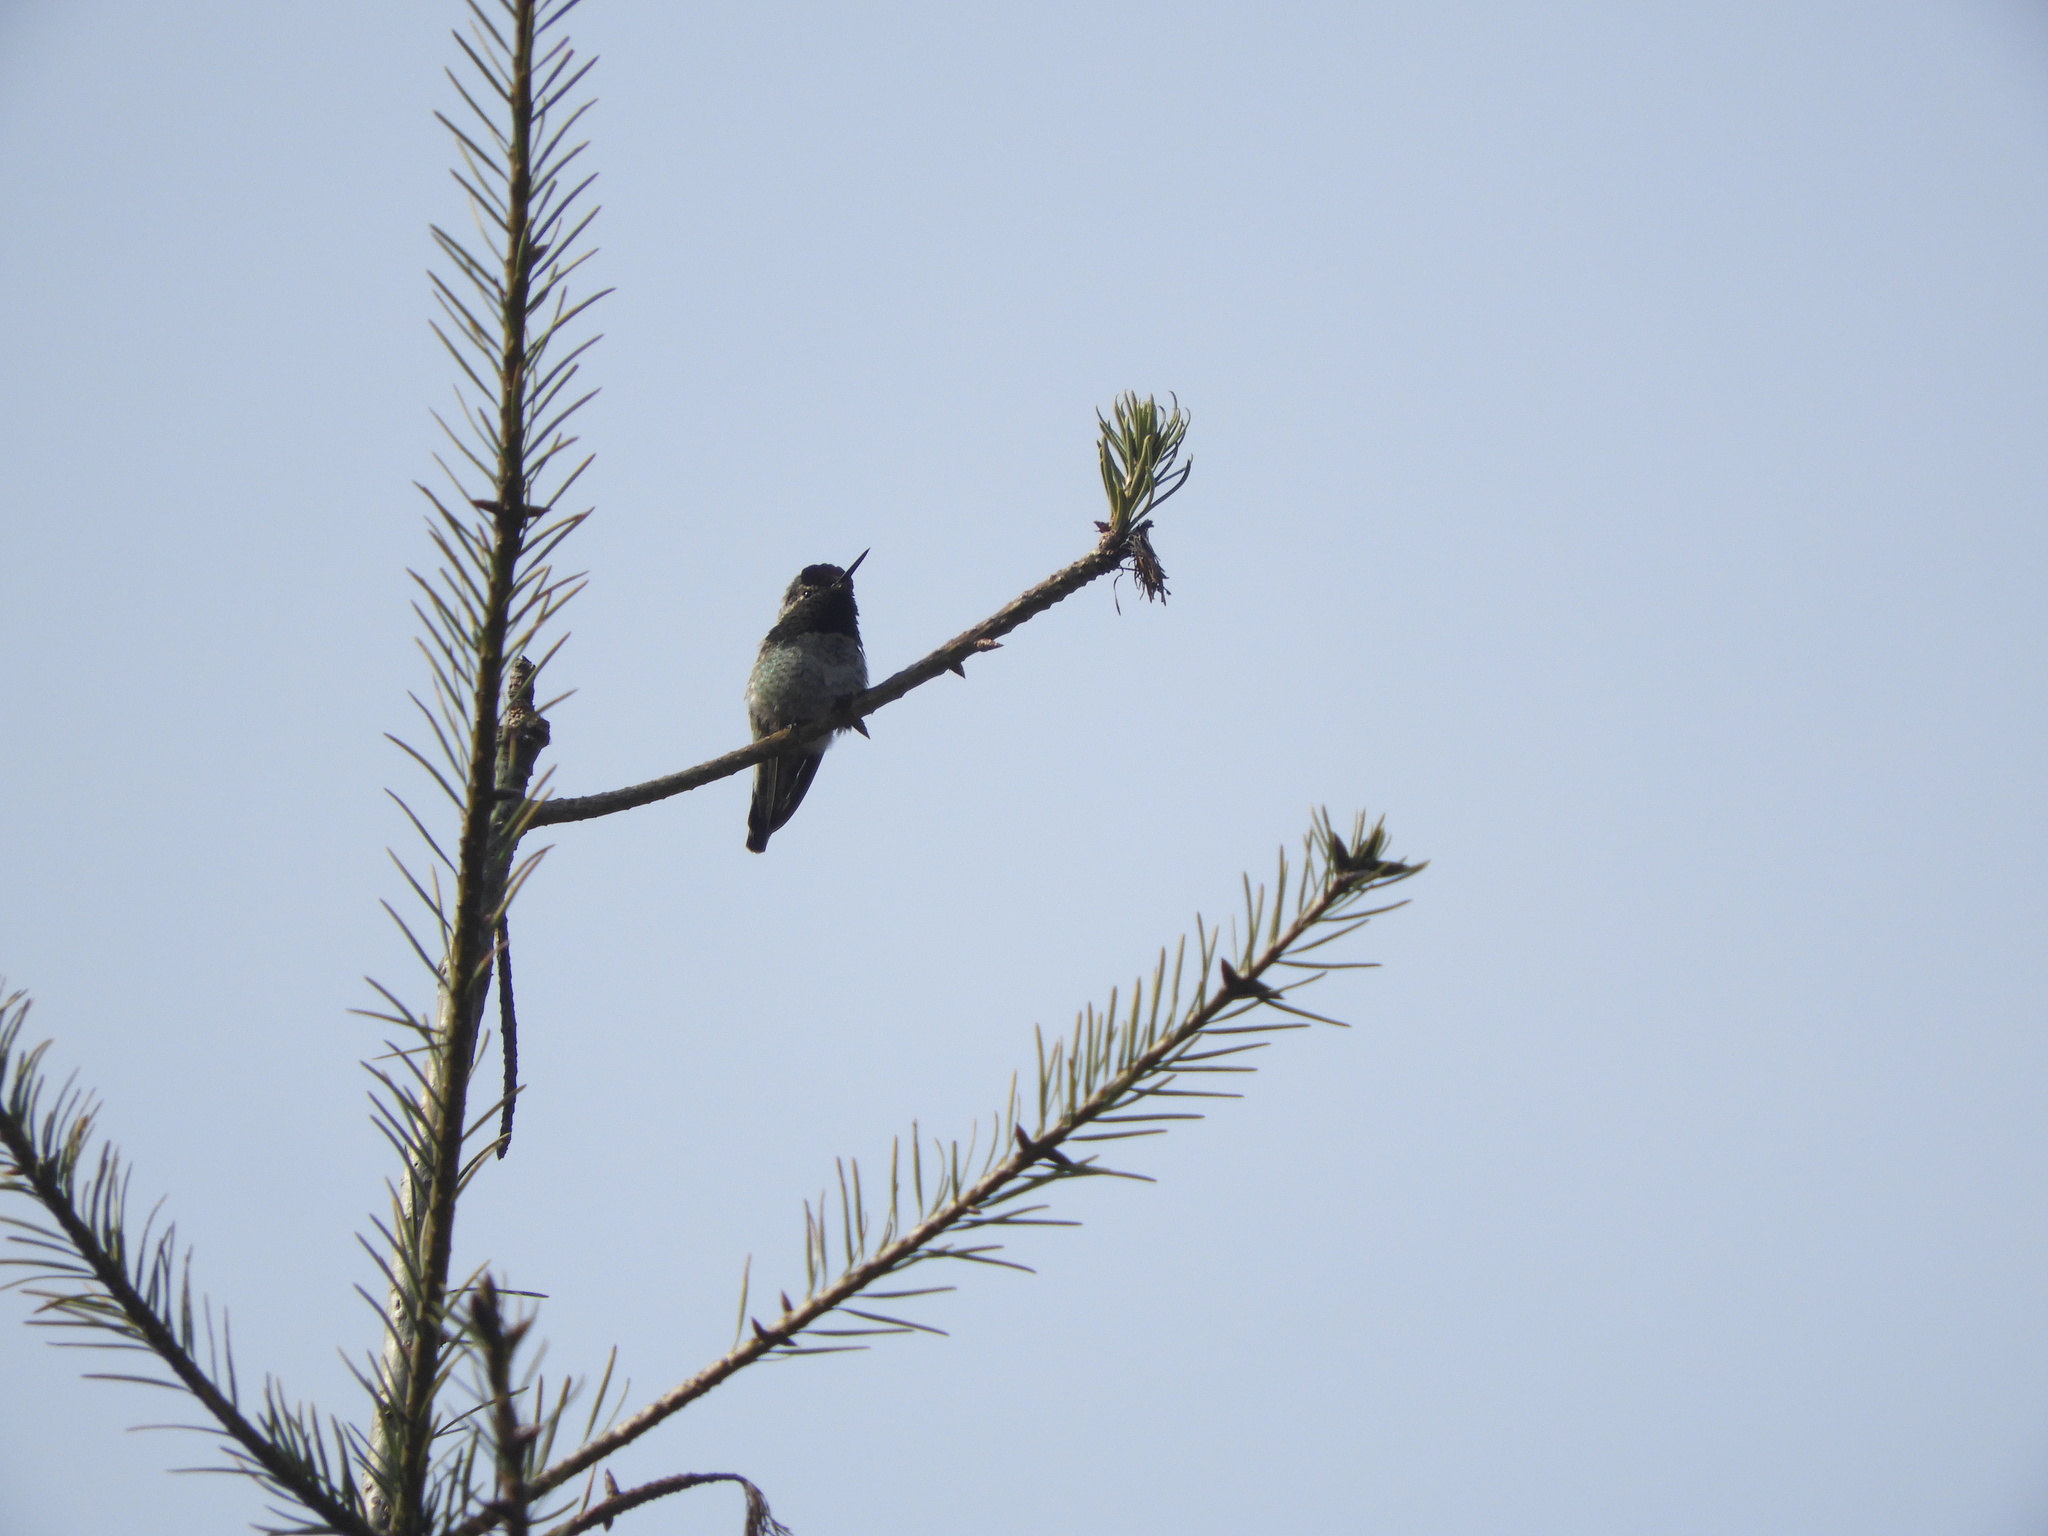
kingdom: Animalia
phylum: Chordata
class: Aves
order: Apodiformes
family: Trochilidae
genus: Calypte
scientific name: Calypte anna
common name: Anna's hummingbird
